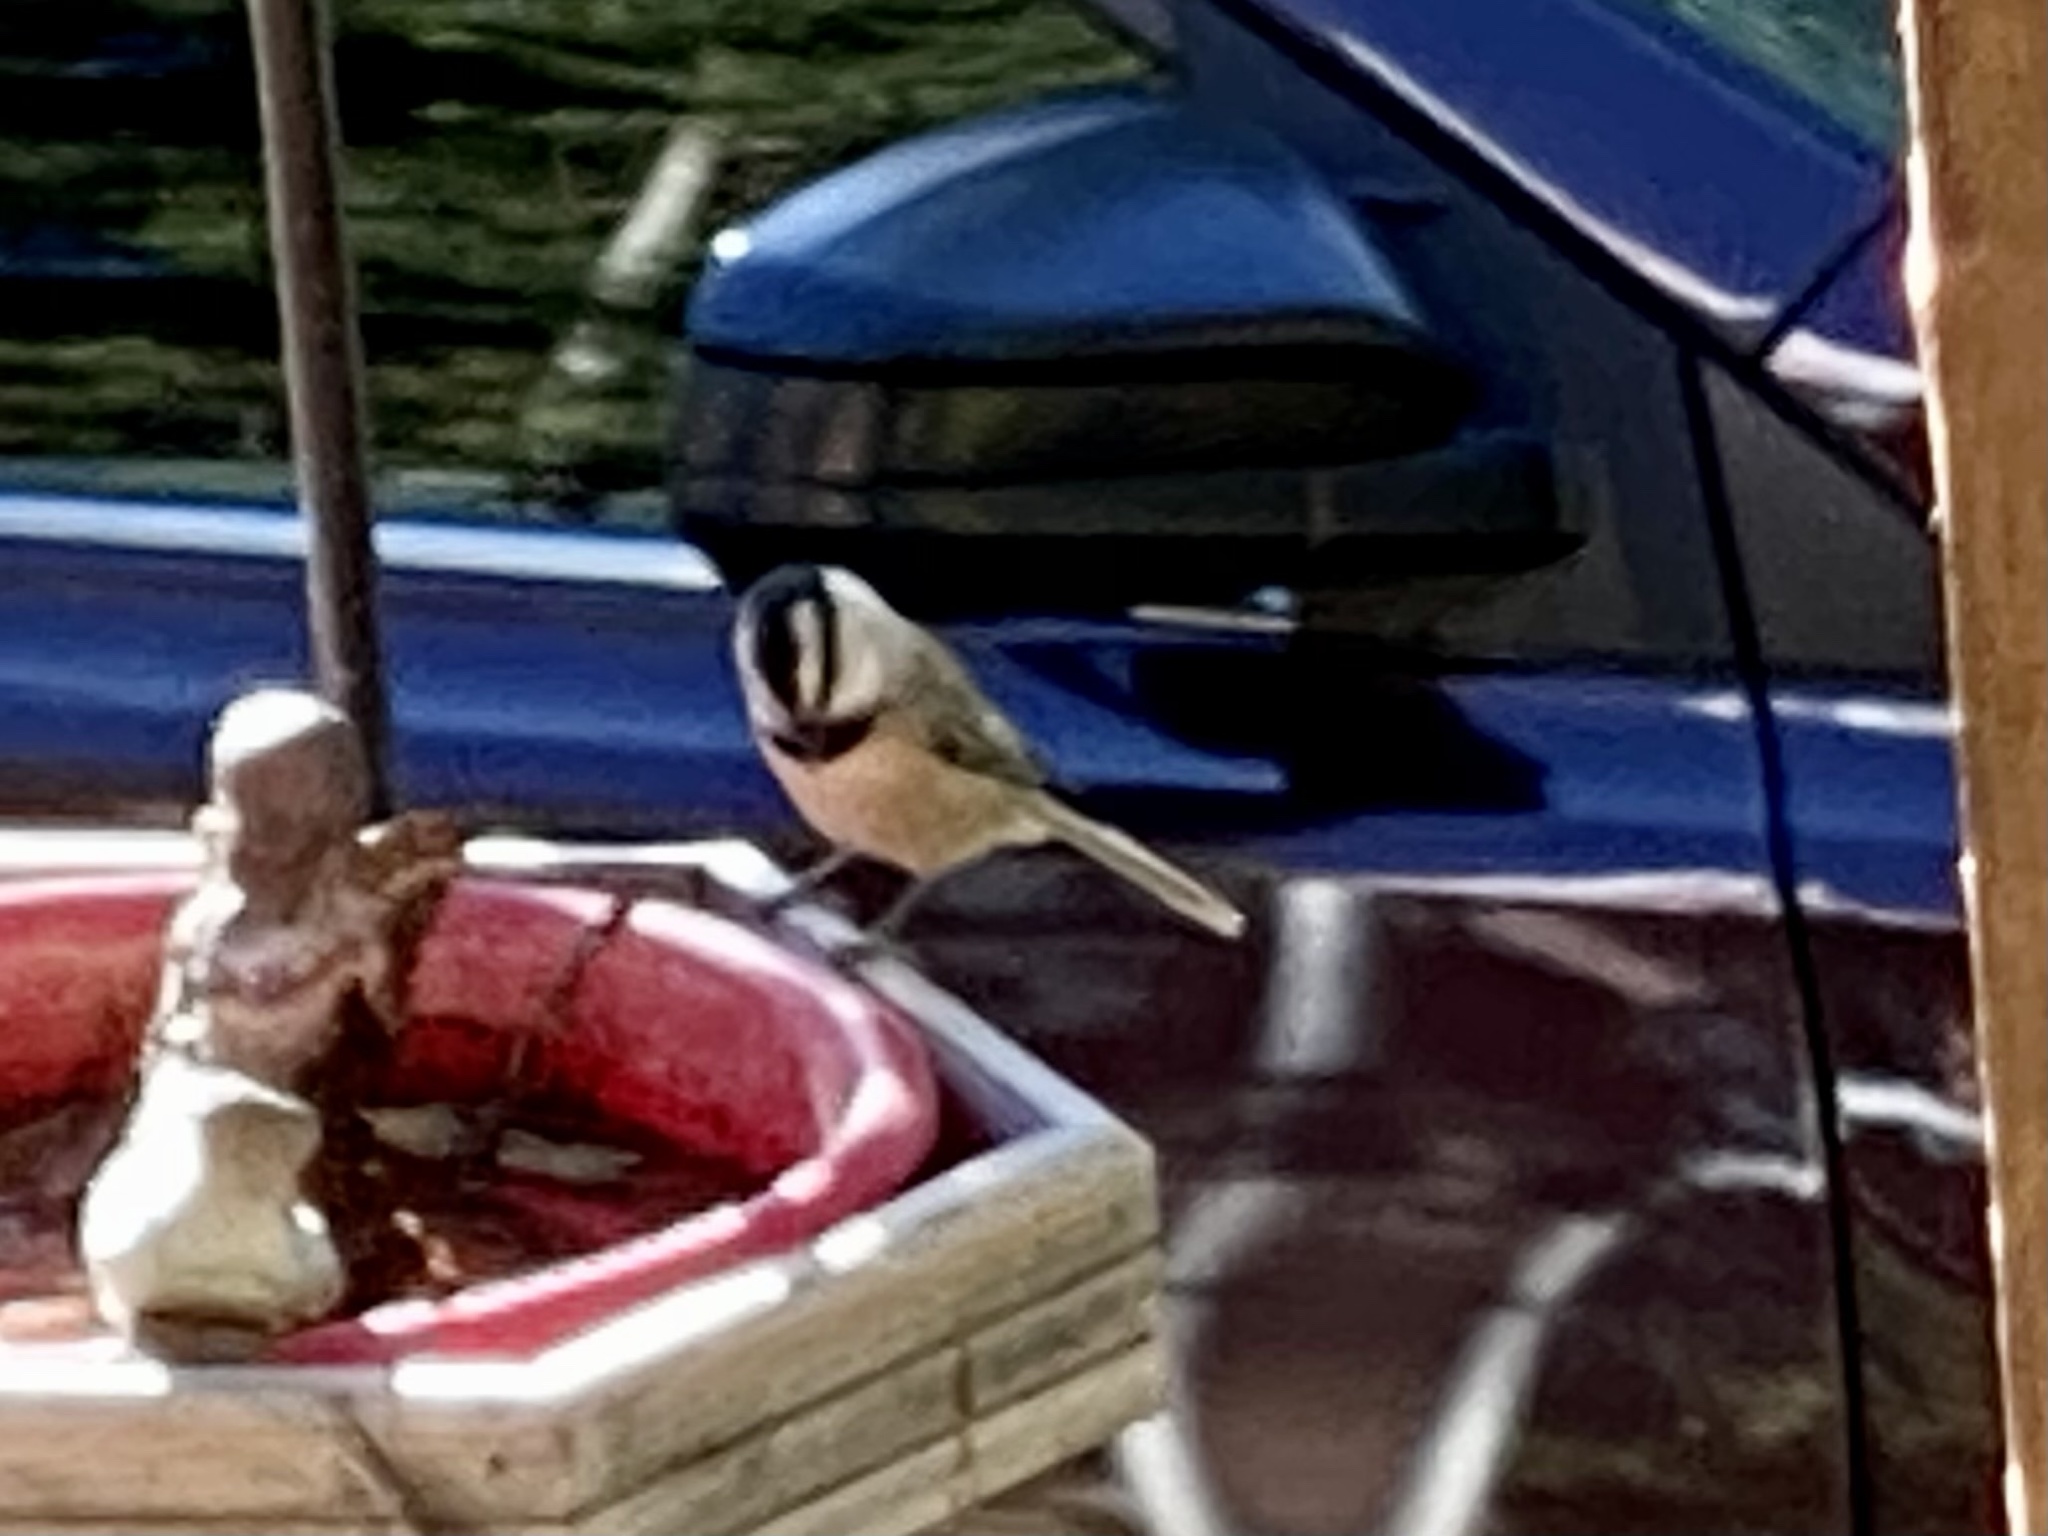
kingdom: Animalia
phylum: Chordata
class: Aves
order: Passeriformes
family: Paridae
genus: Poecile
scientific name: Poecile gambeli
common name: Mountain chickadee
